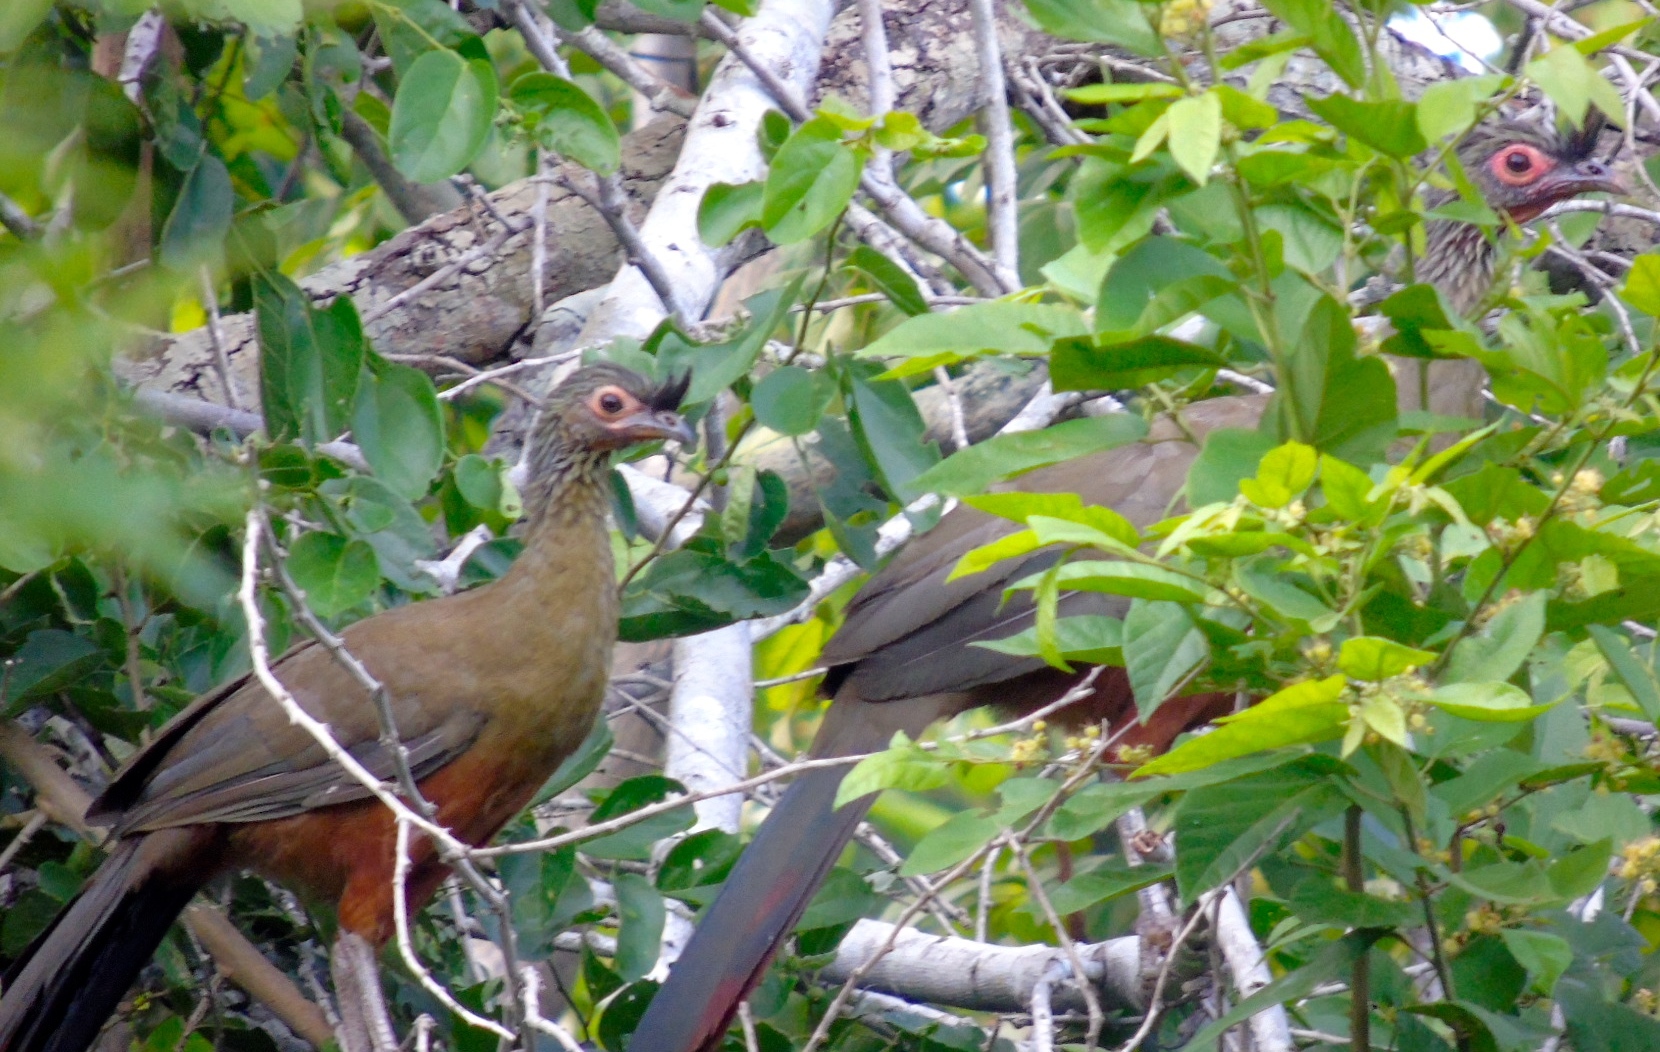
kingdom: Animalia
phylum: Chordata
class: Aves
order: Galliformes
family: Cracidae
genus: Ortalis
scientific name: Ortalis wagleri
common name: Rufous-bellied chachalaca
